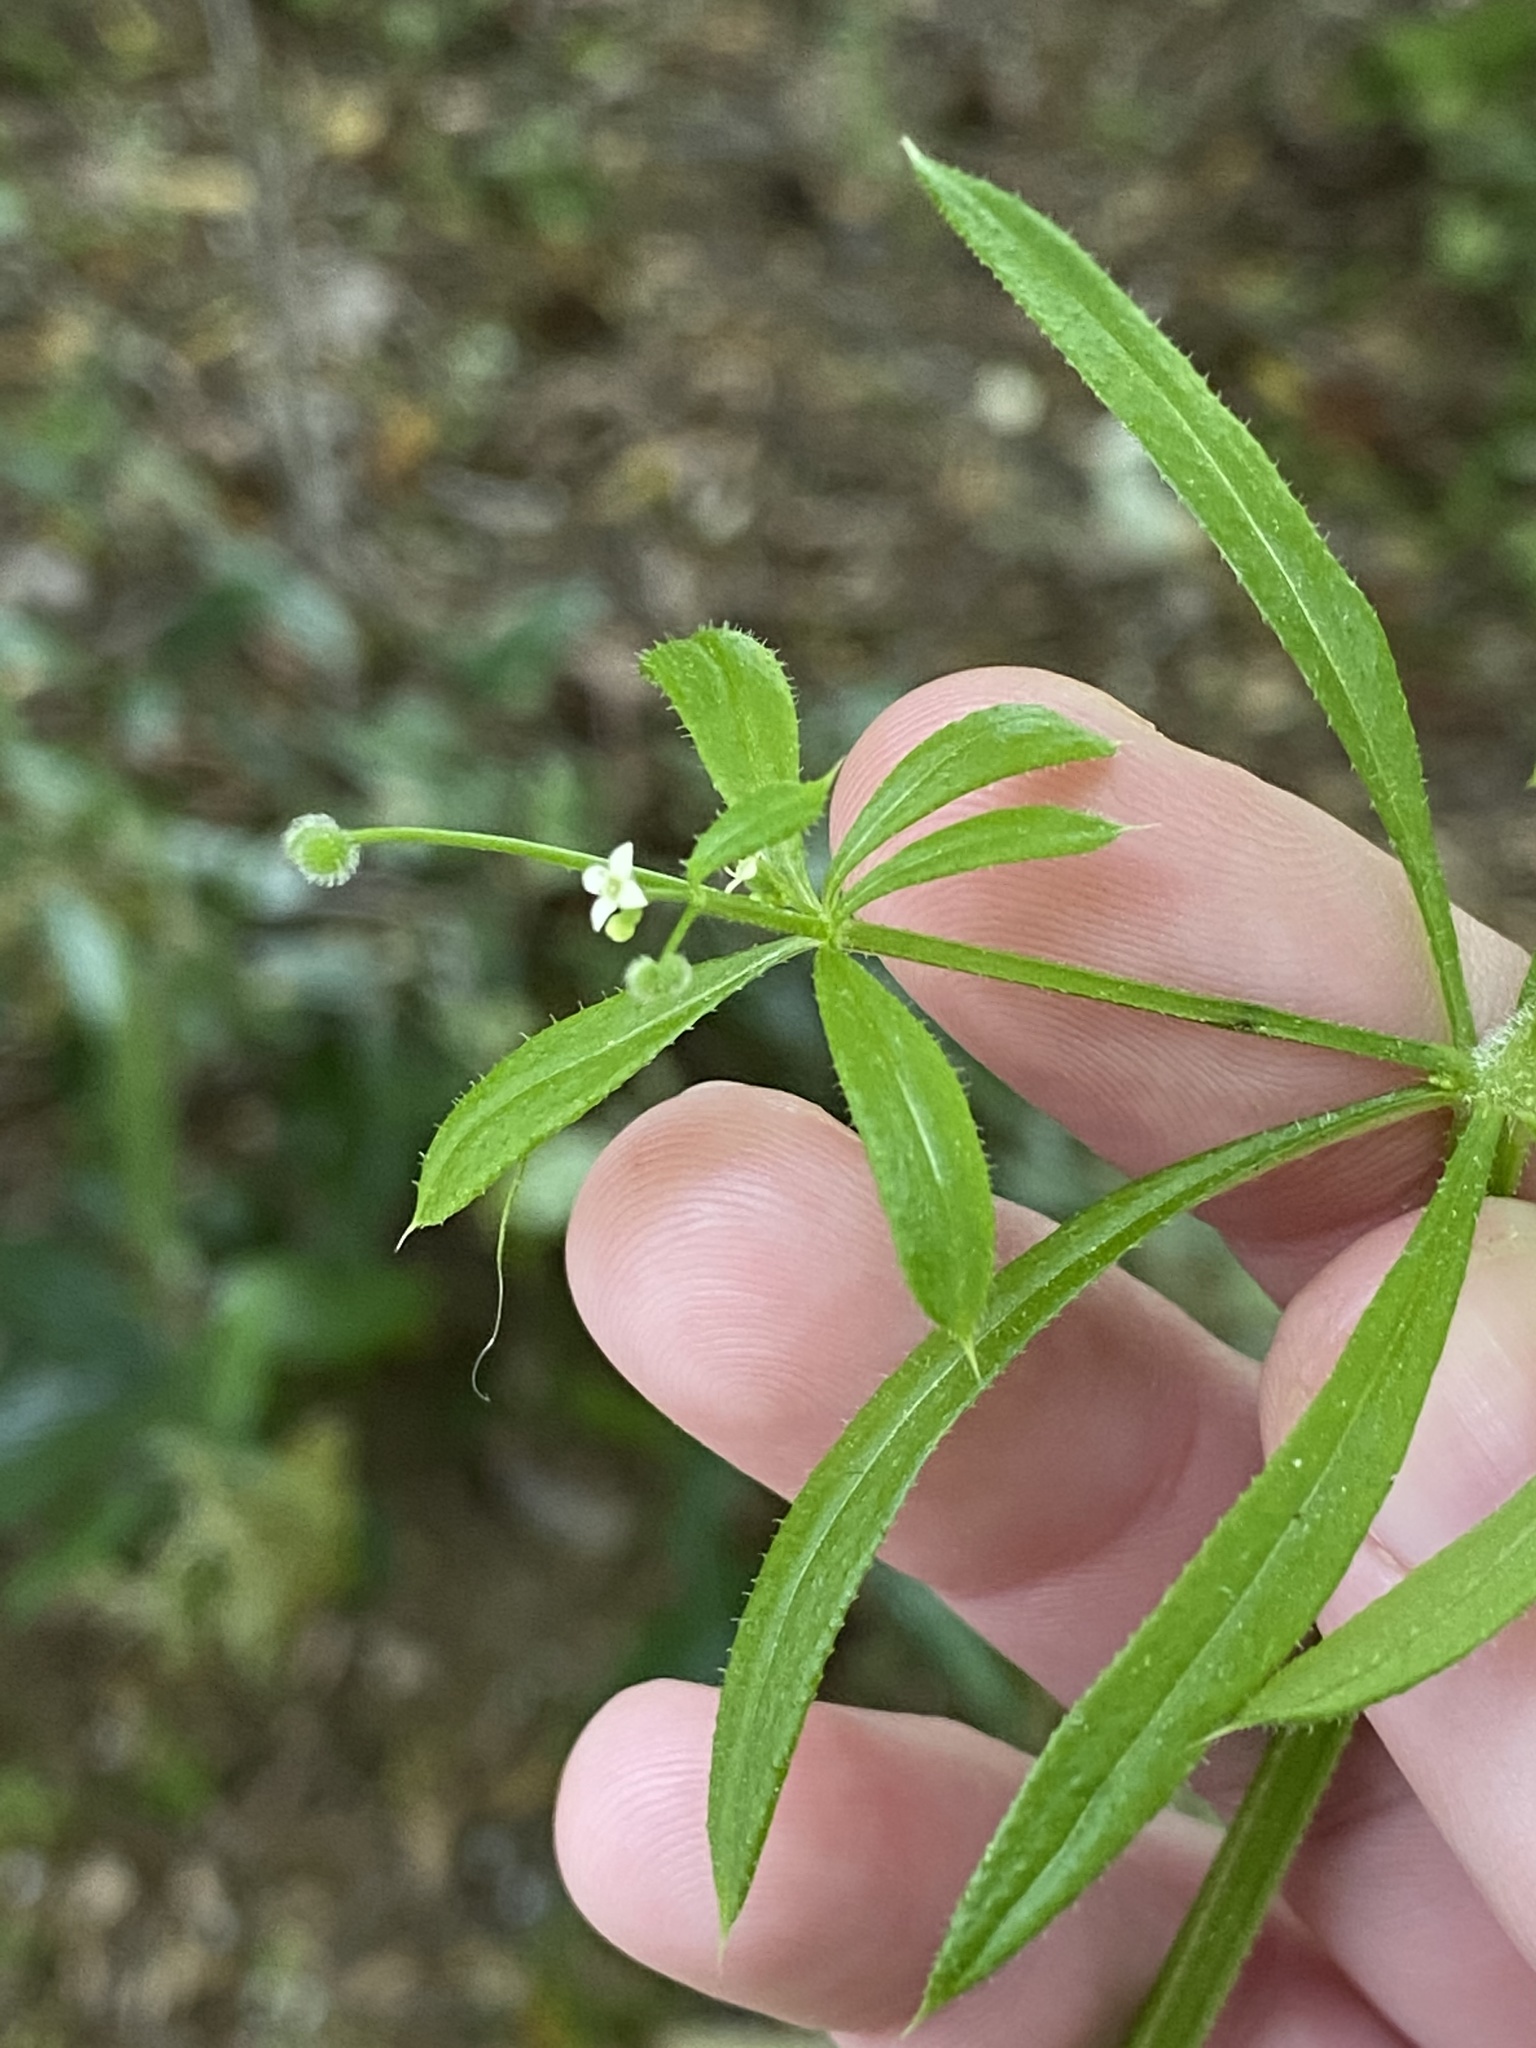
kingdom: Plantae
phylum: Tracheophyta
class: Magnoliopsida
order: Gentianales
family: Rubiaceae
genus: Galium
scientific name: Galium aparine
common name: Cleavers
